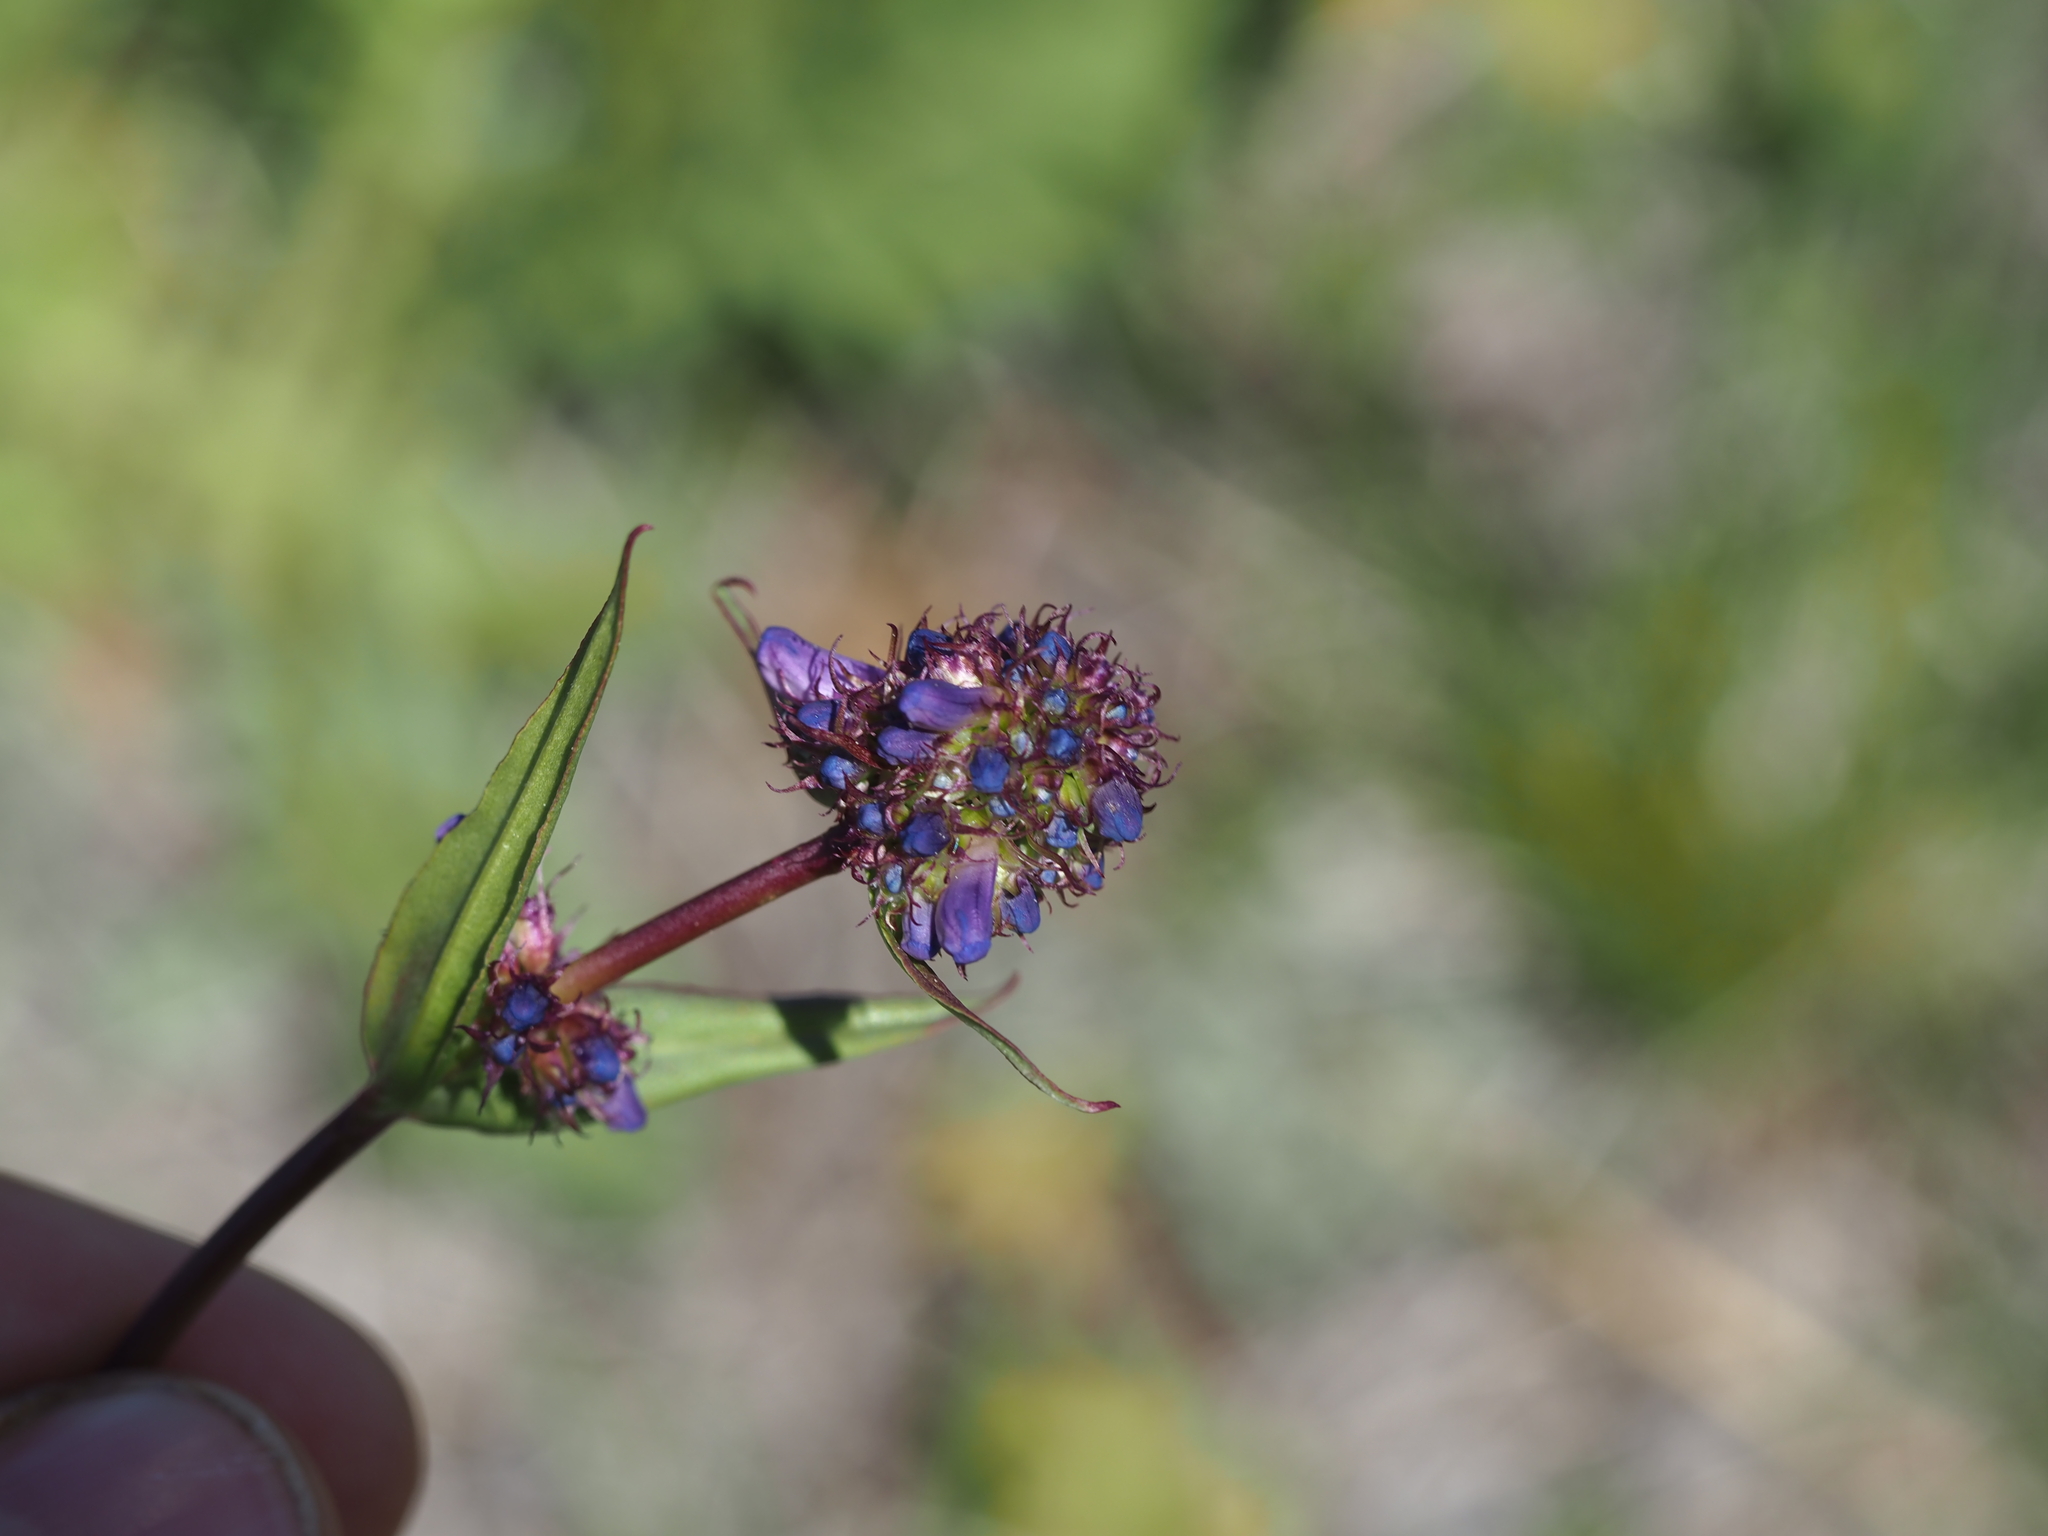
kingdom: Plantae
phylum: Tracheophyta
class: Magnoliopsida
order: Lamiales
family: Plantaginaceae
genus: Penstemon
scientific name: Penstemon procerus
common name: Small-flower penstemon
